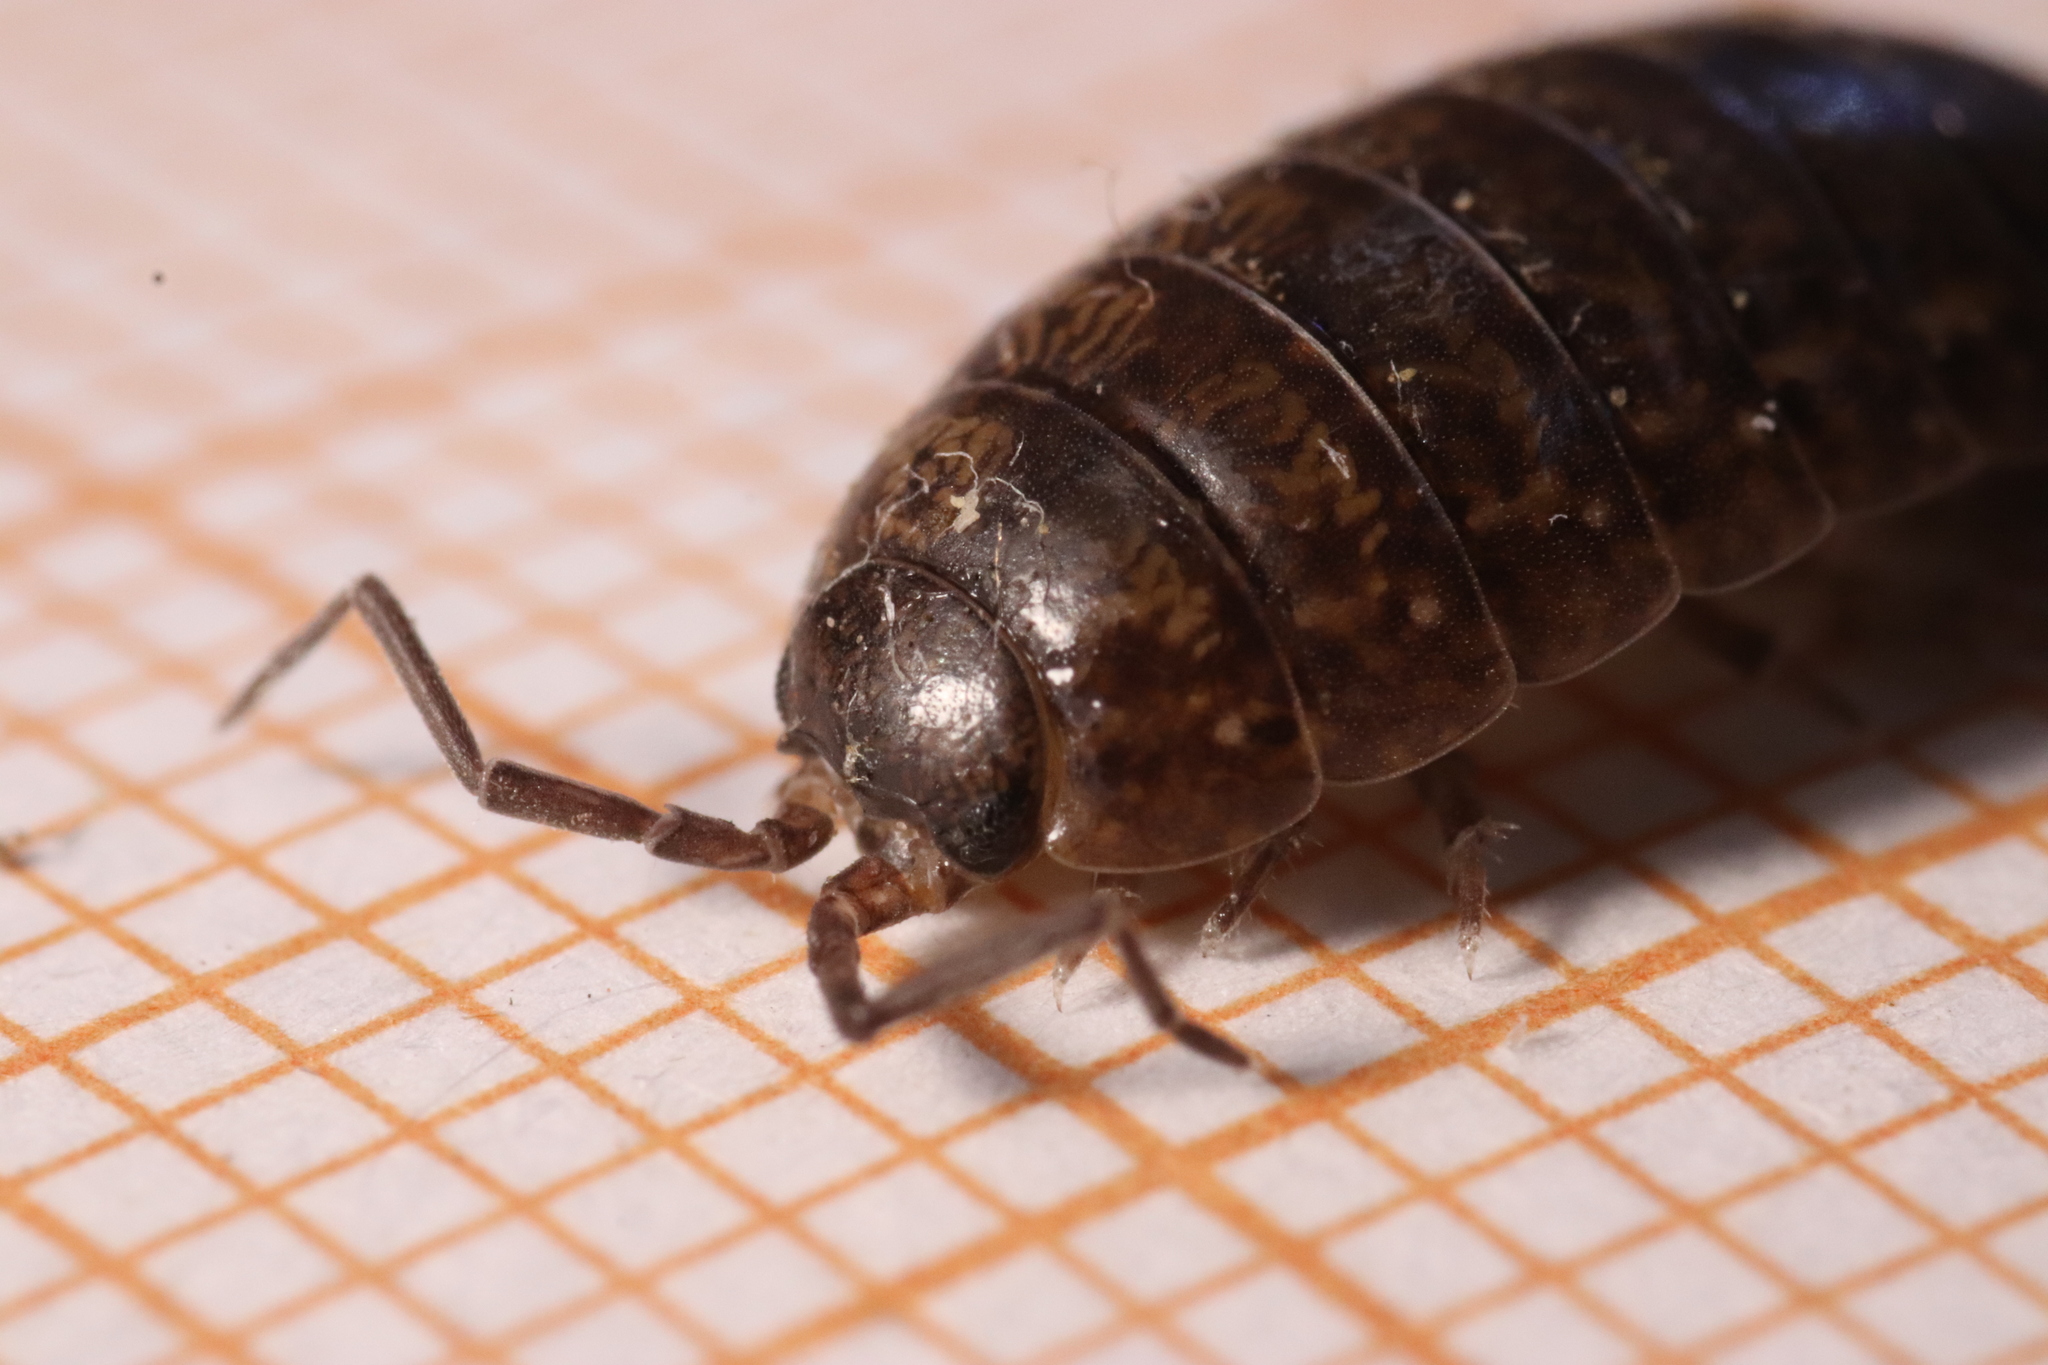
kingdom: Animalia
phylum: Arthropoda
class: Malacostraca
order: Isopoda
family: Porcellionidae
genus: Porcellio
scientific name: Porcellio gallicus
